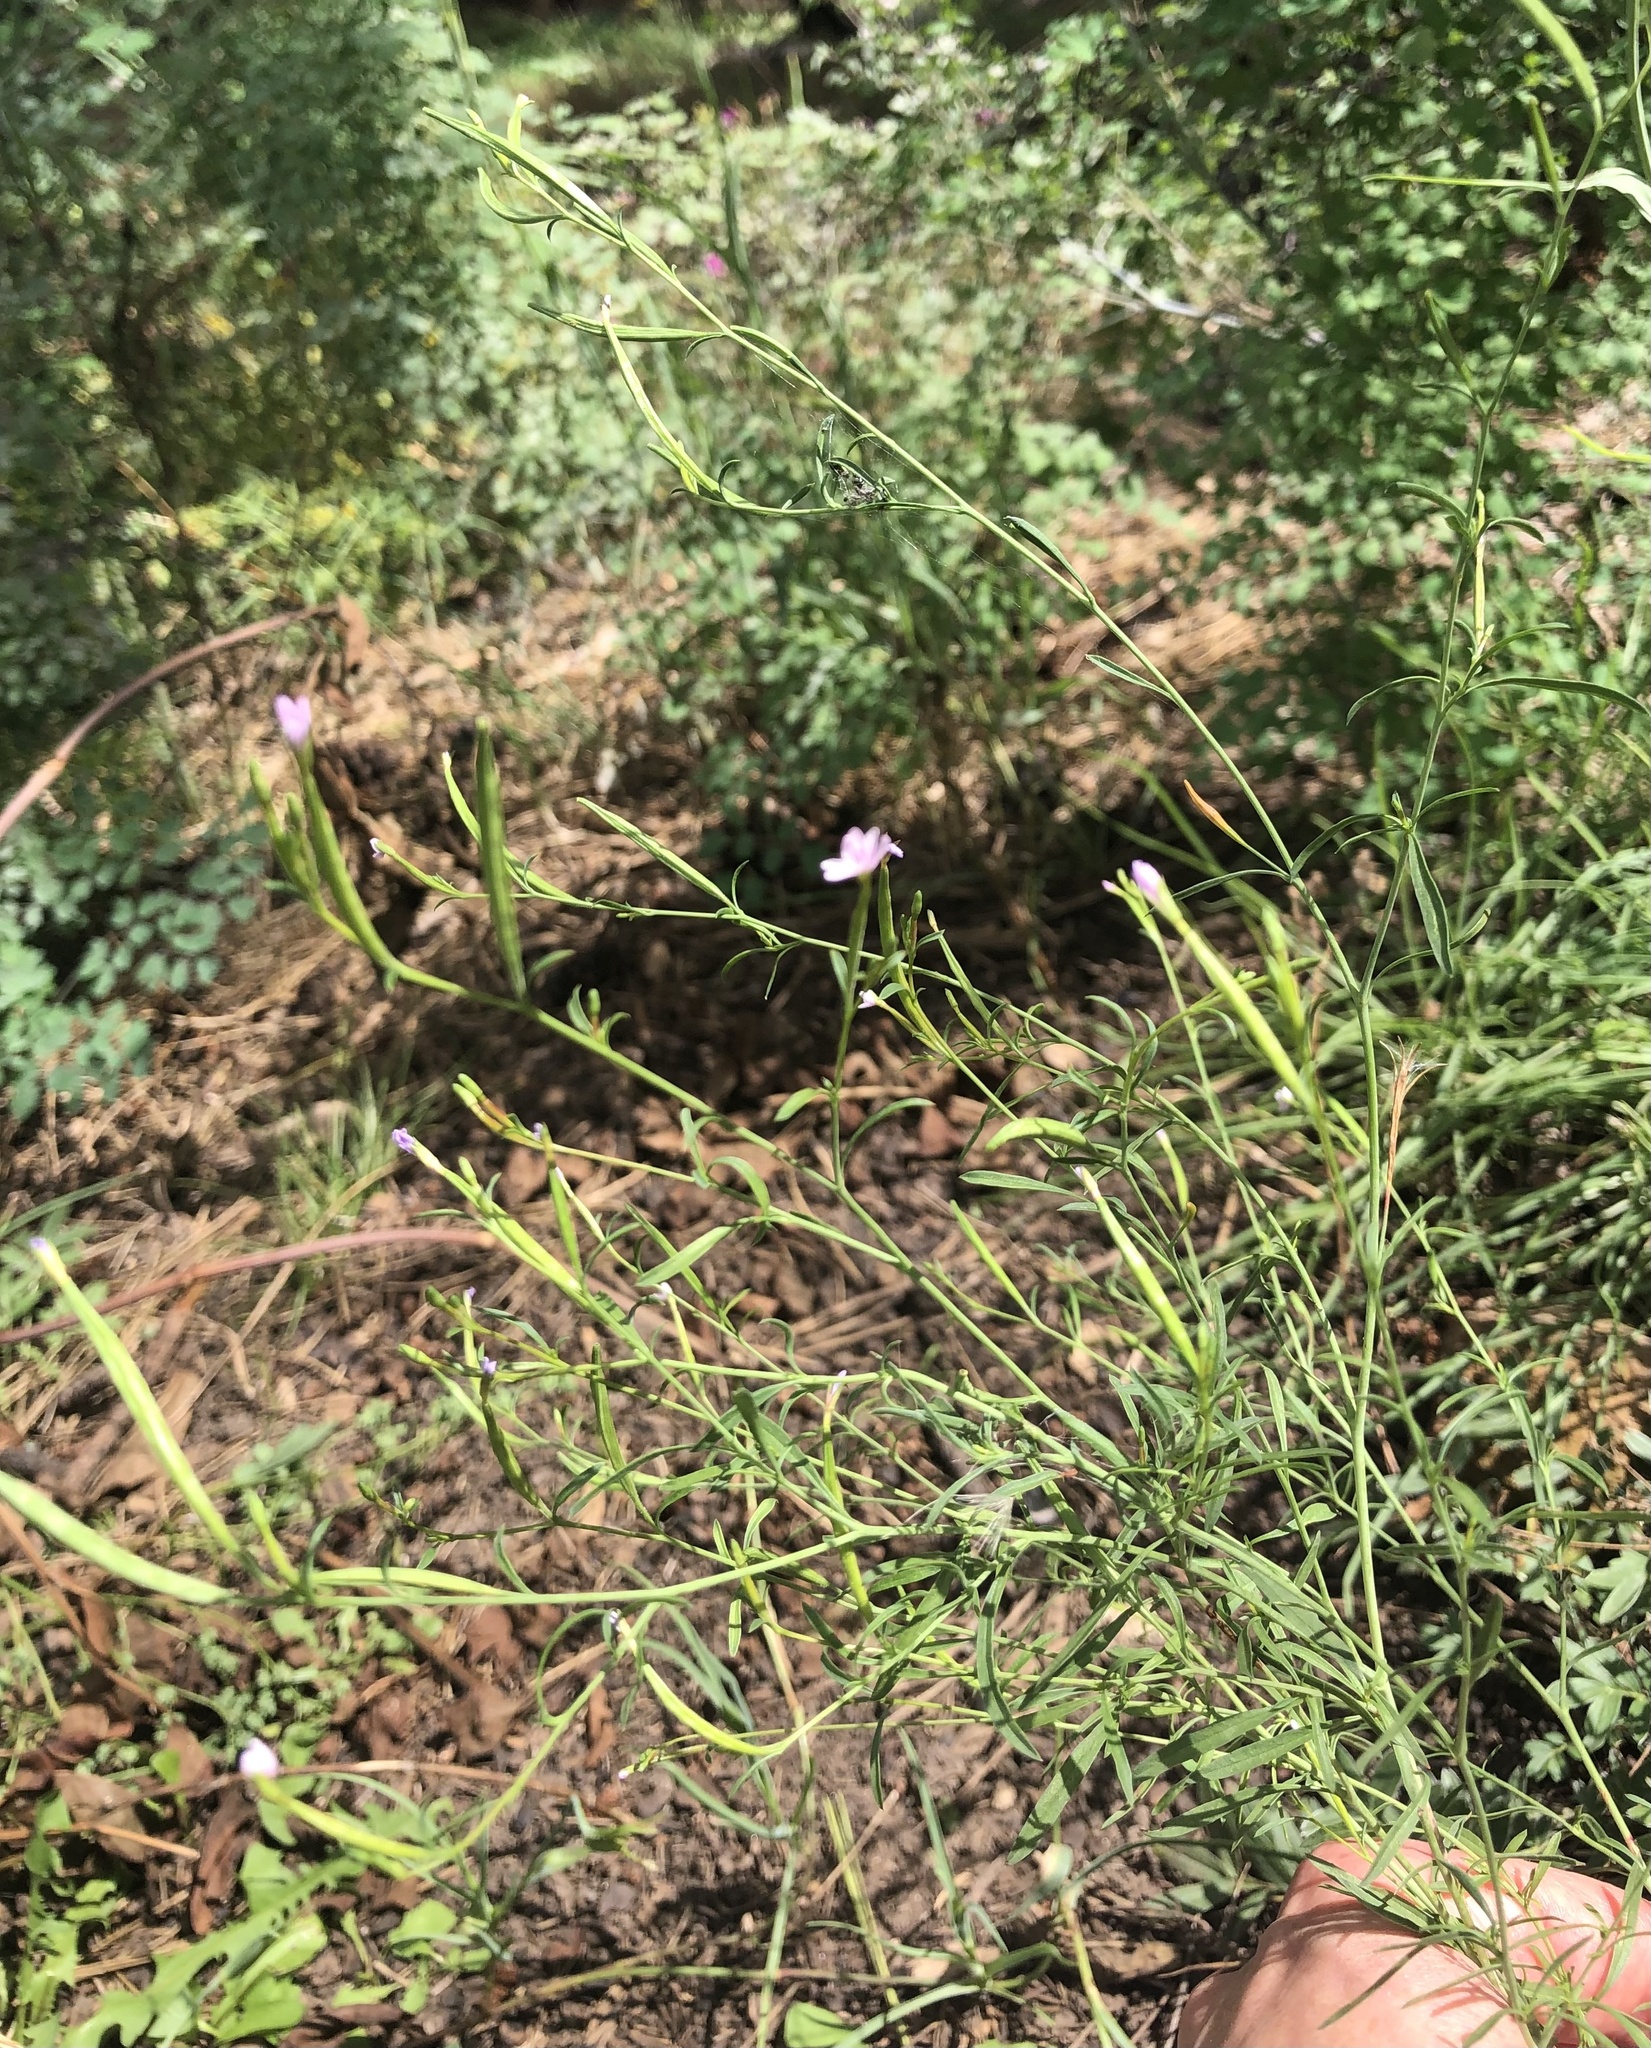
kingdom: Plantae
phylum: Tracheophyta
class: Magnoliopsida
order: Myrtales
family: Onagraceae
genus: Epilobium
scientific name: Epilobium brachycarpum
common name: Annual willowherb
